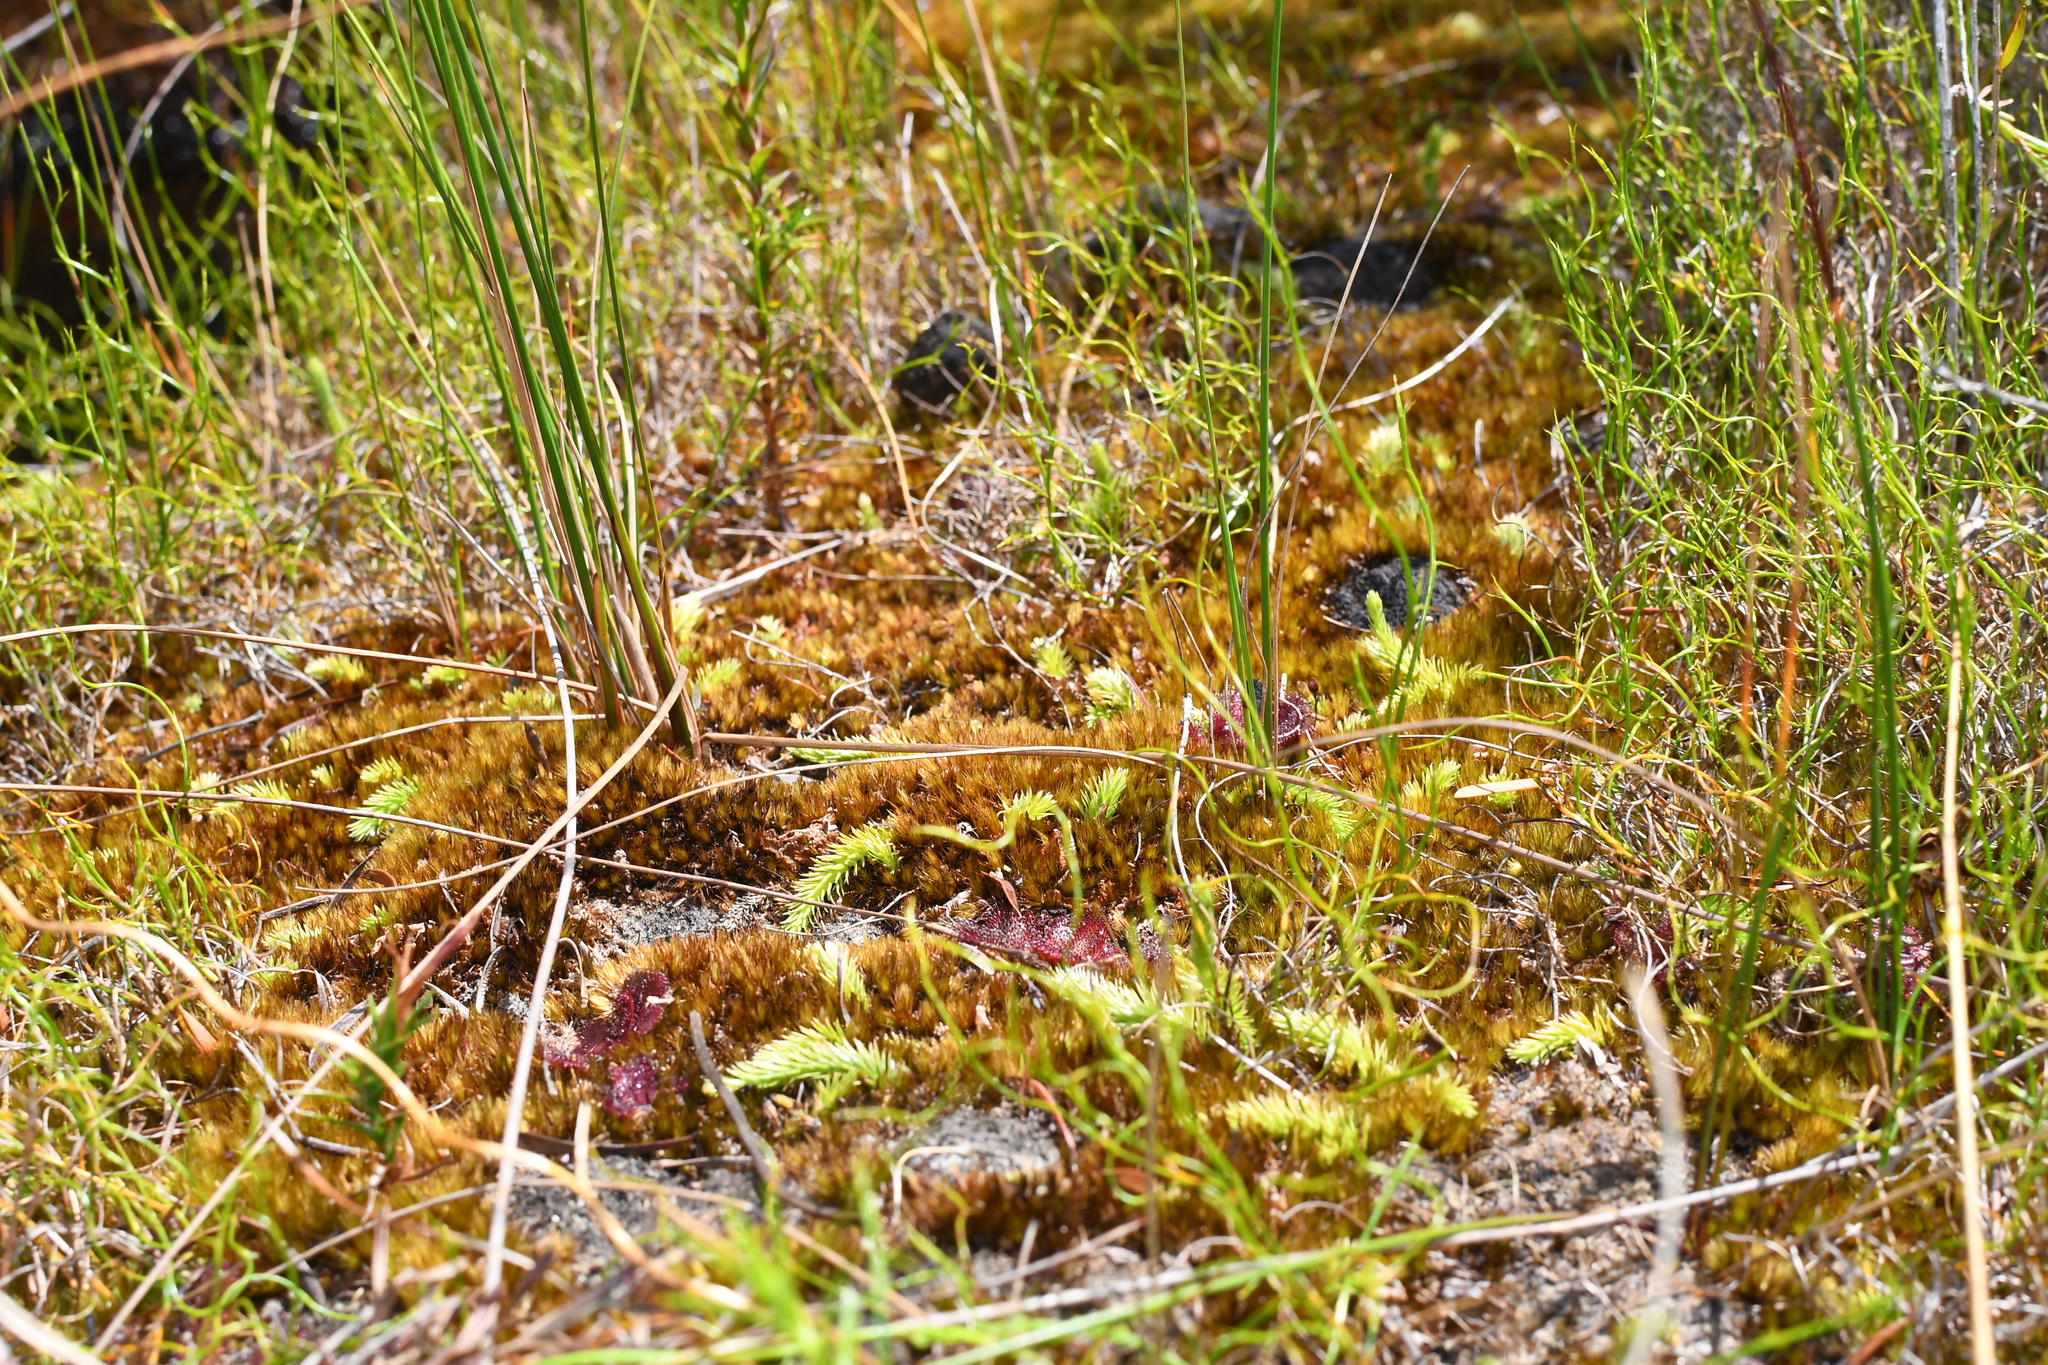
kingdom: Plantae
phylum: Tracheophyta
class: Lycopodiopsida
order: Lycopodiales
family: Lycopodiaceae
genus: Brownseya
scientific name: Brownseya serpentina
